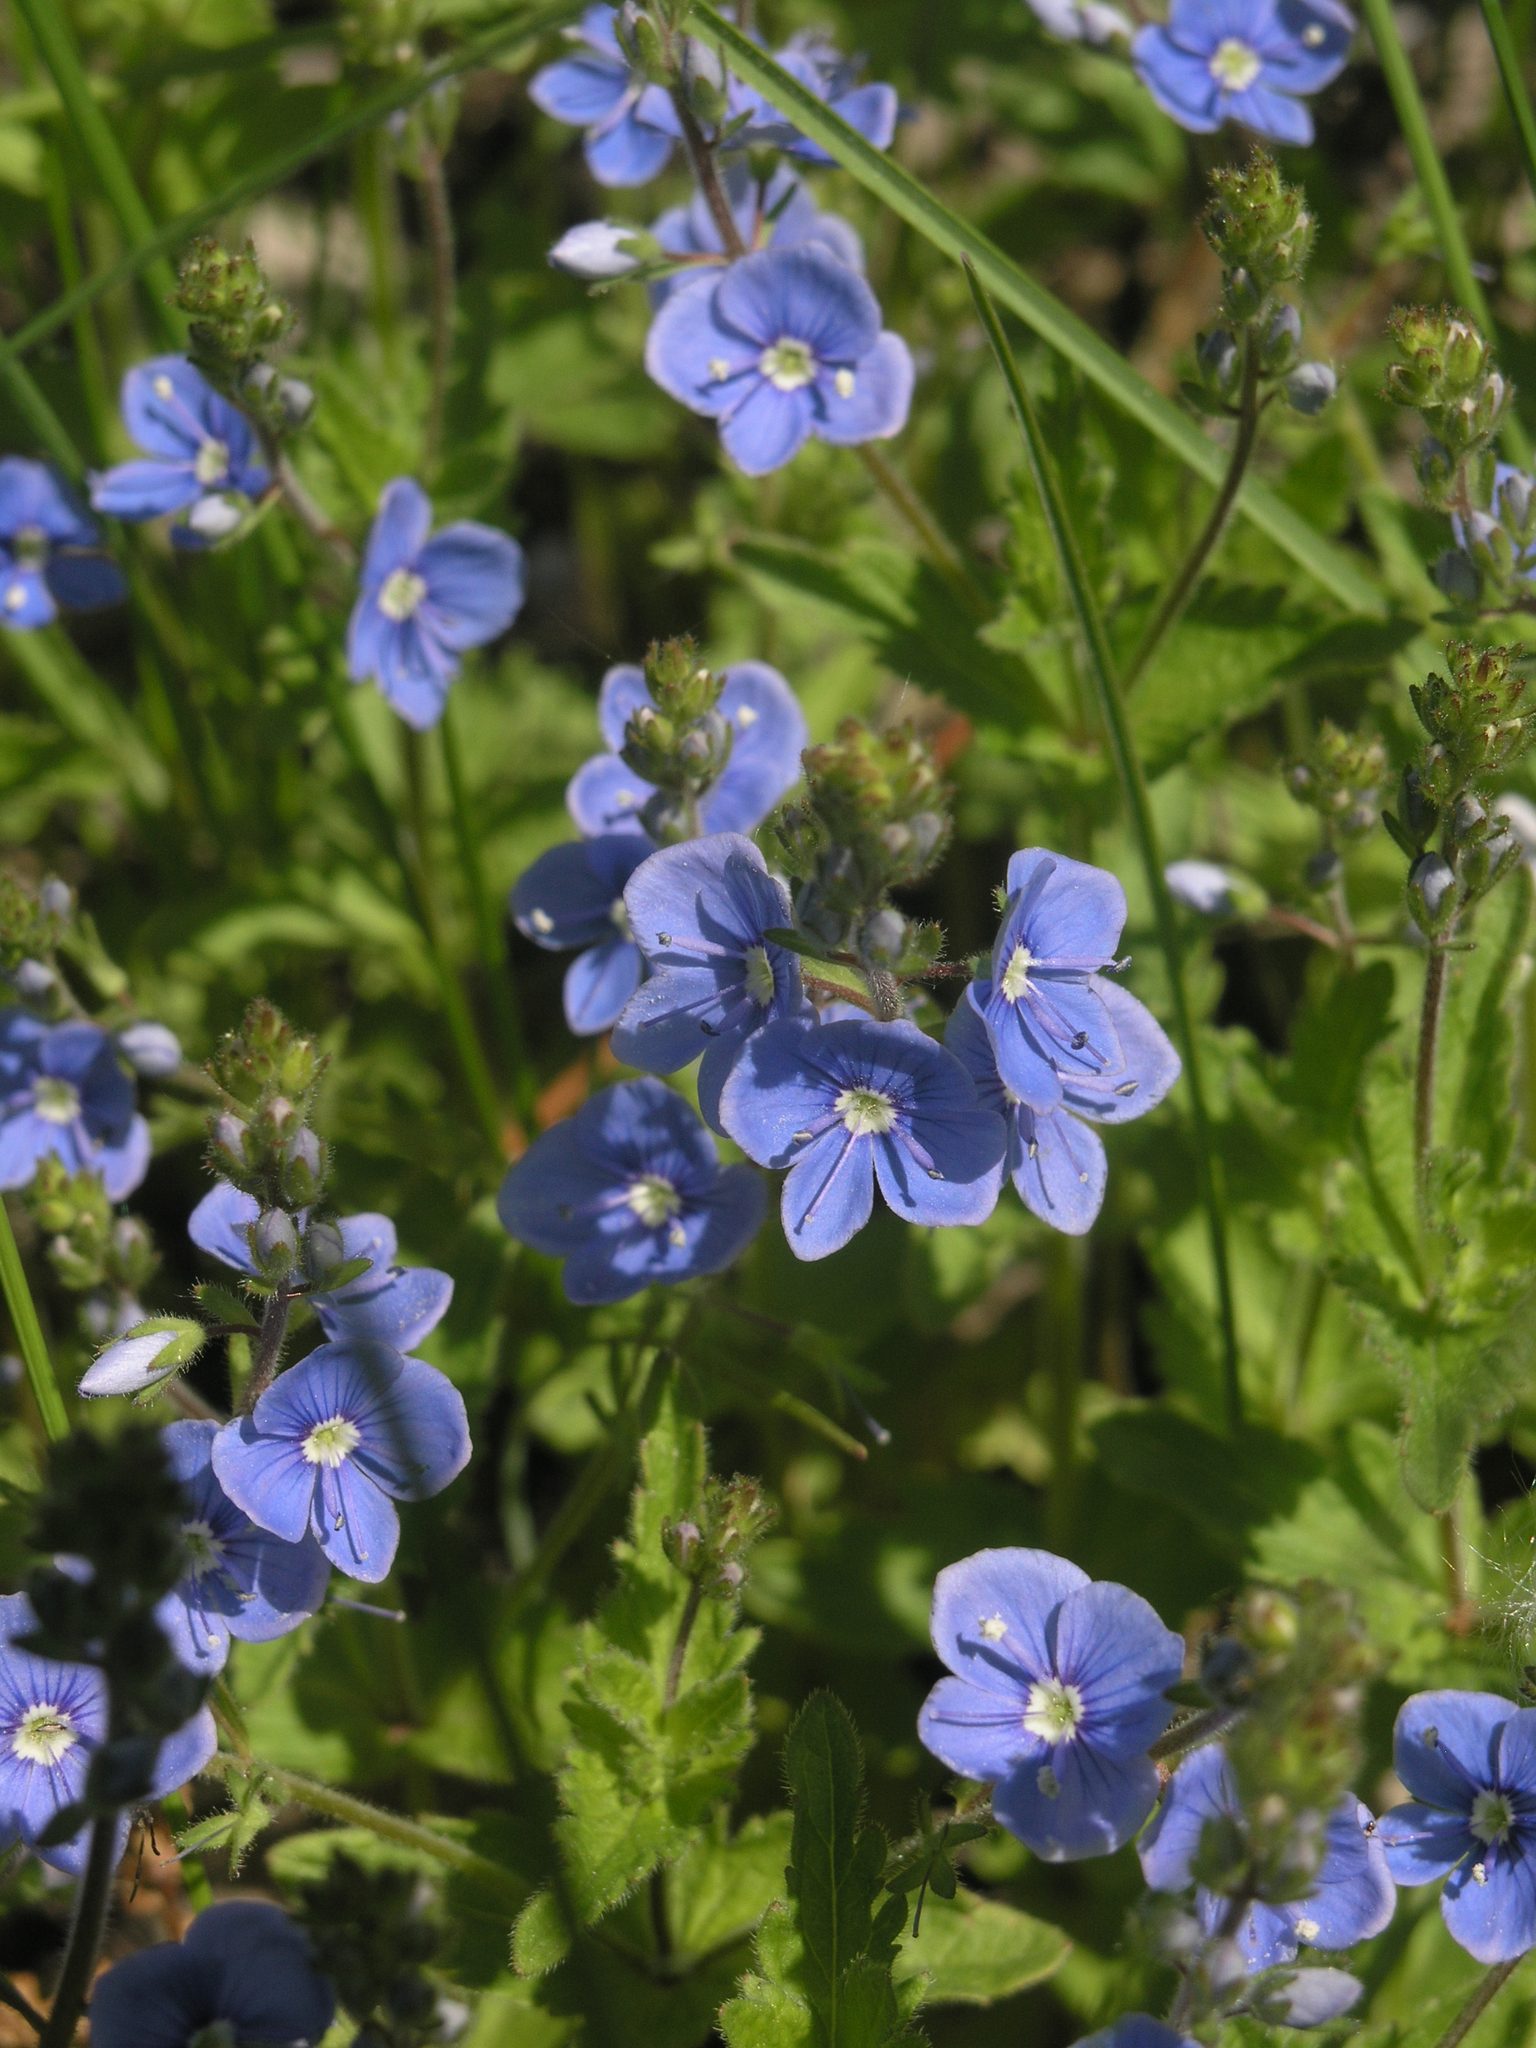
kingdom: Plantae
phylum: Tracheophyta
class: Magnoliopsida
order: Lamiales
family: Plantaginaceae
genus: Veronica
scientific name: Veronica chamaedrys
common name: Germander speedwell
